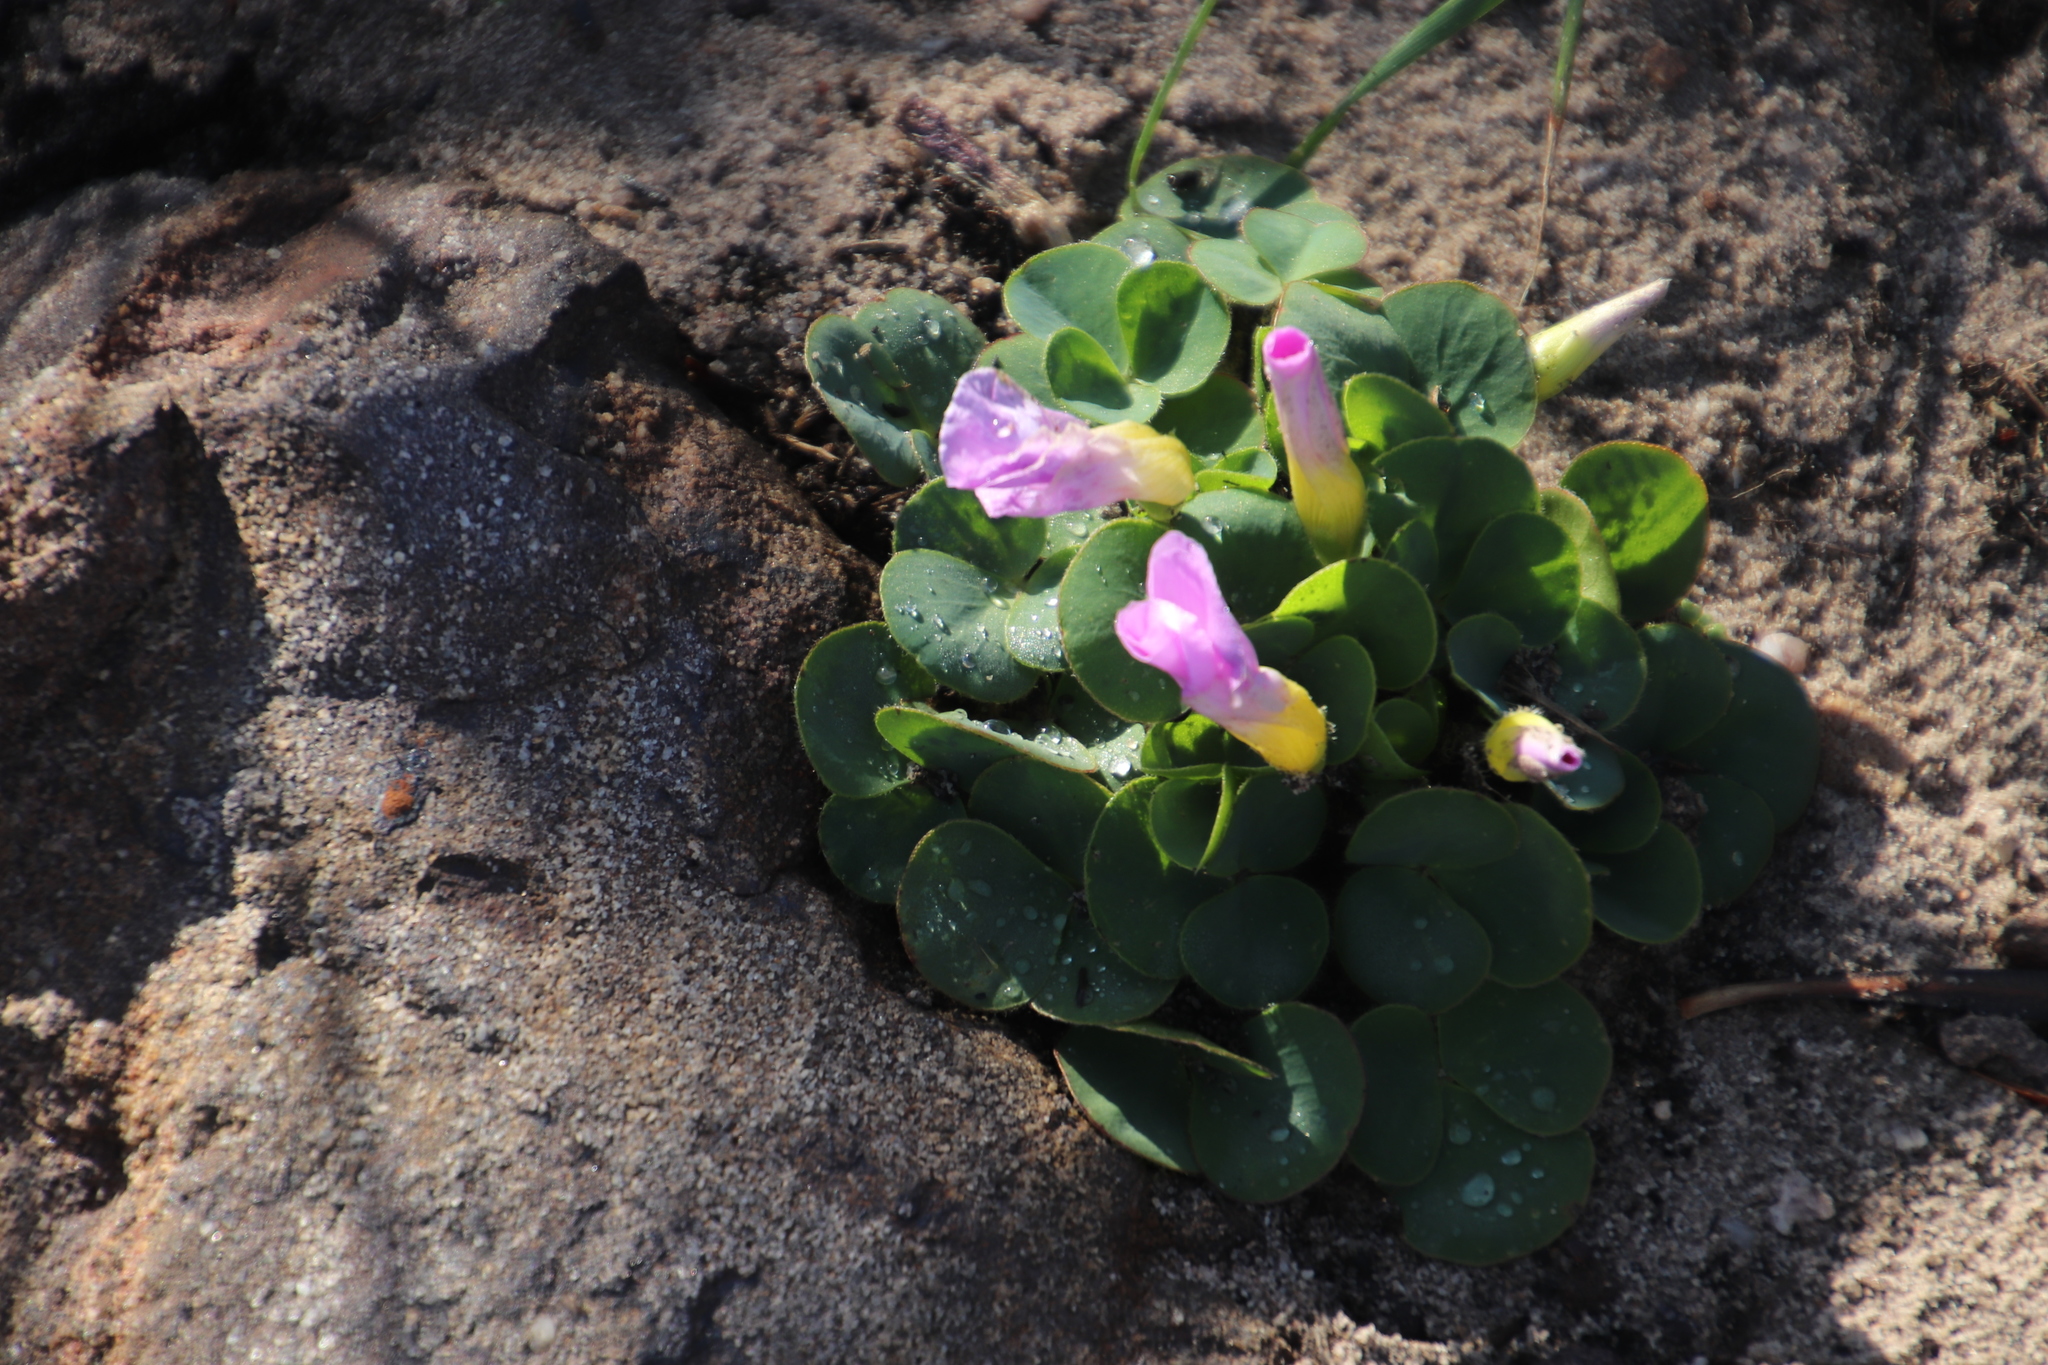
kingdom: Plantae
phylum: Tracheophyta
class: Magnoliopsida
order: Oxalidales
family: Oxalidaceae
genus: Oxalis
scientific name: Oxalis purpurea
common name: Purple woodsorrel
